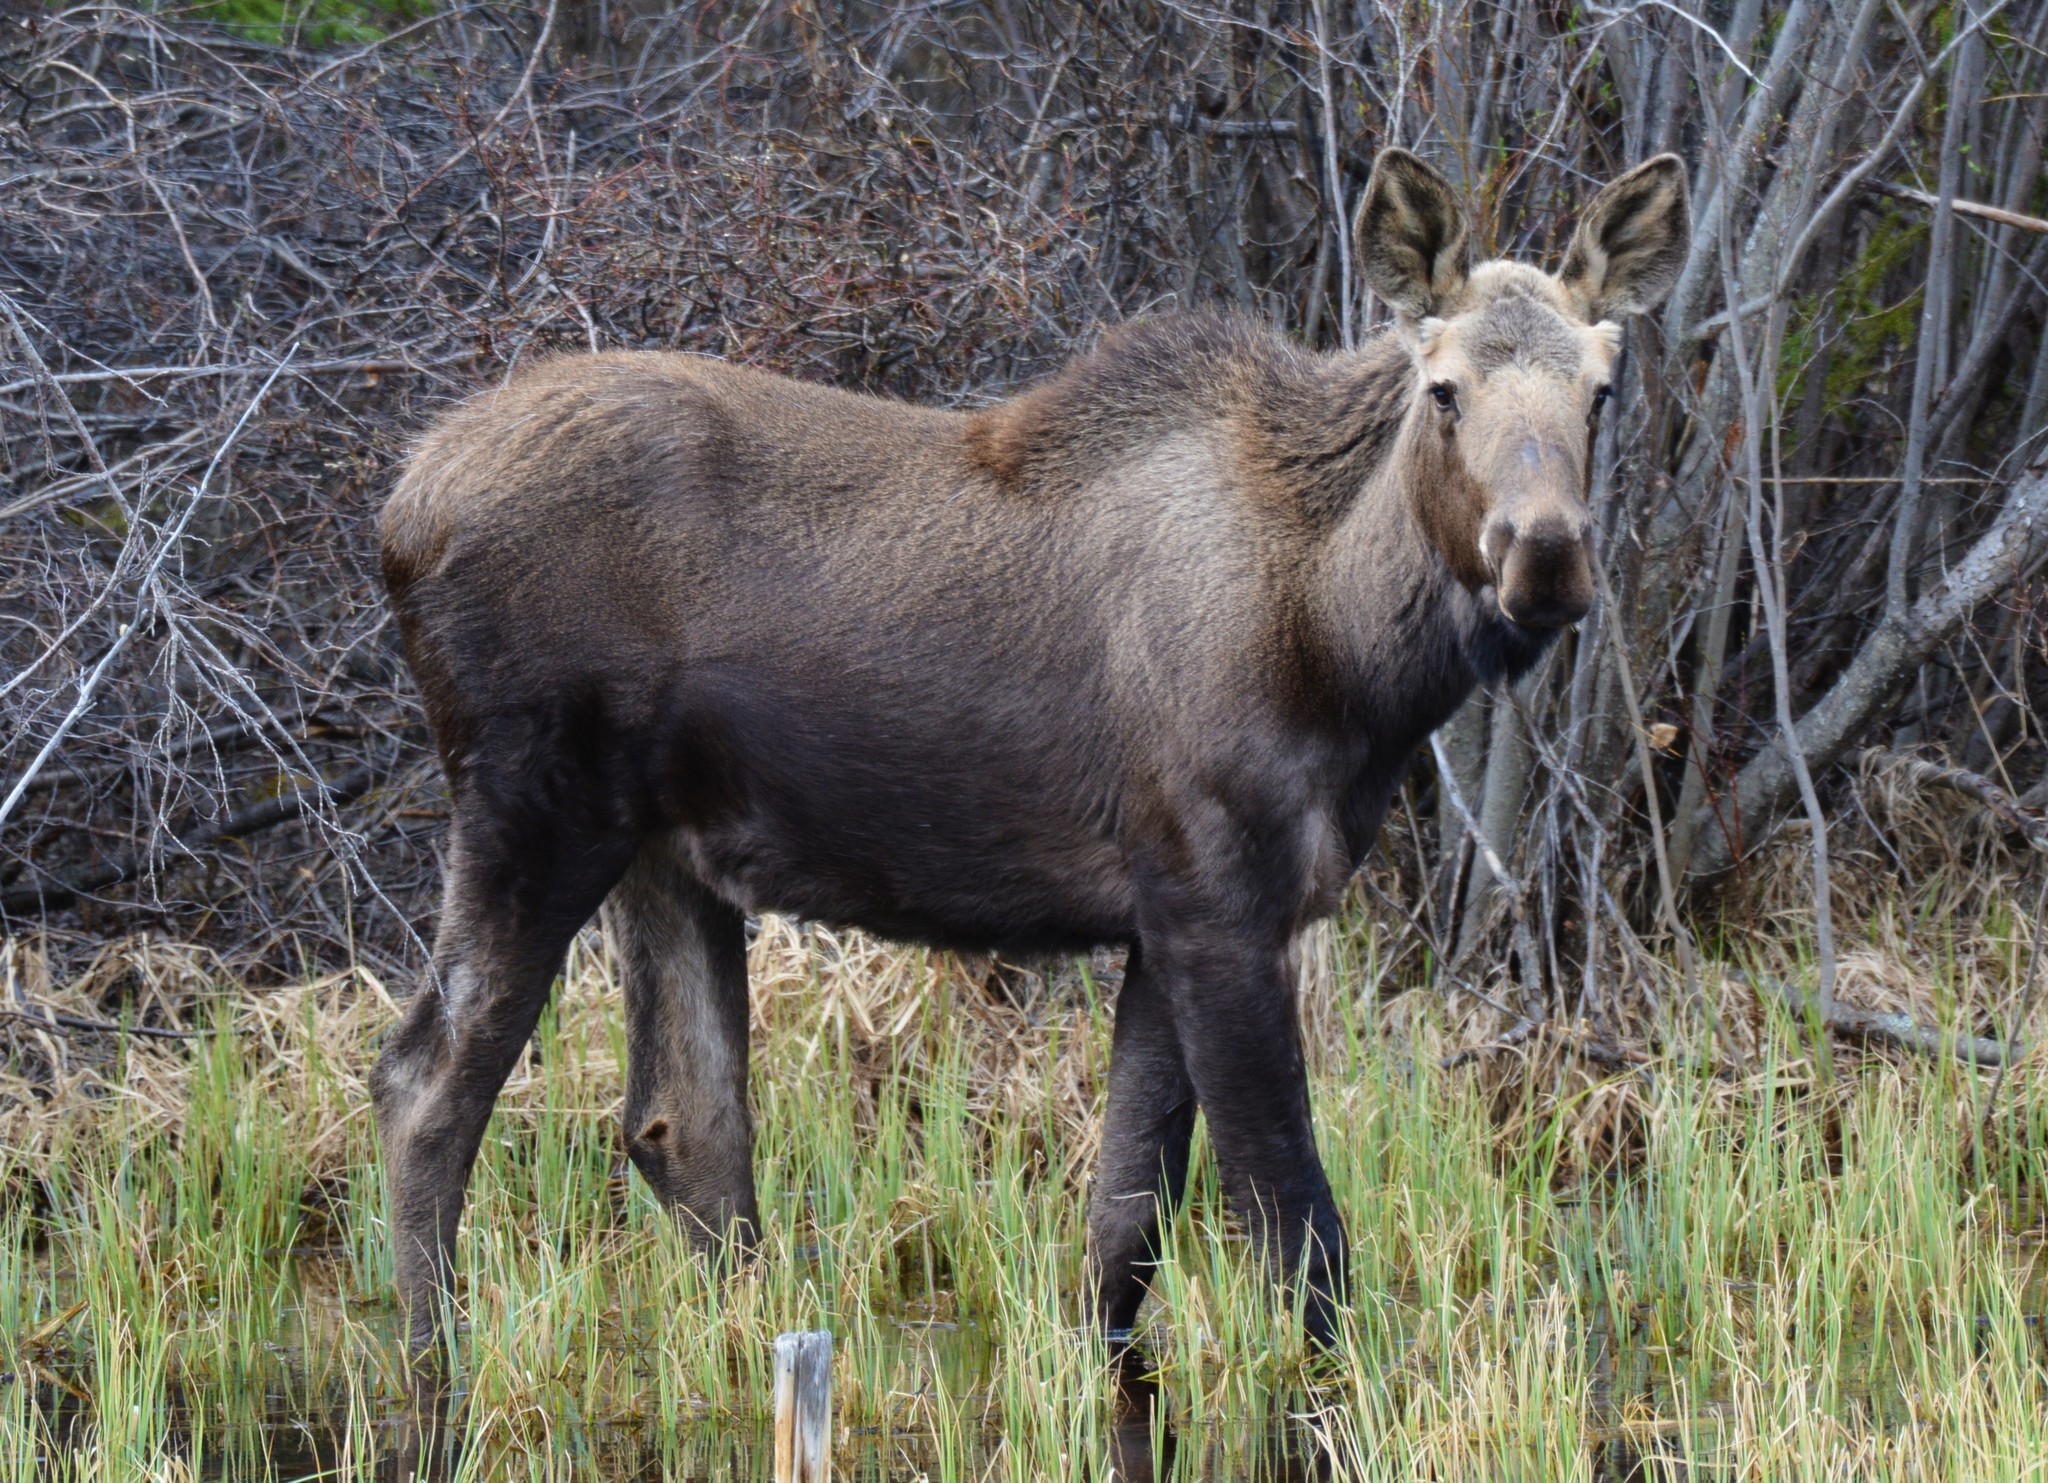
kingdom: Animalia
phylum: Chordata
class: Mammalia
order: Artiodactyla
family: Cervidae
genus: Alces
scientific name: Alces alces
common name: Moose
